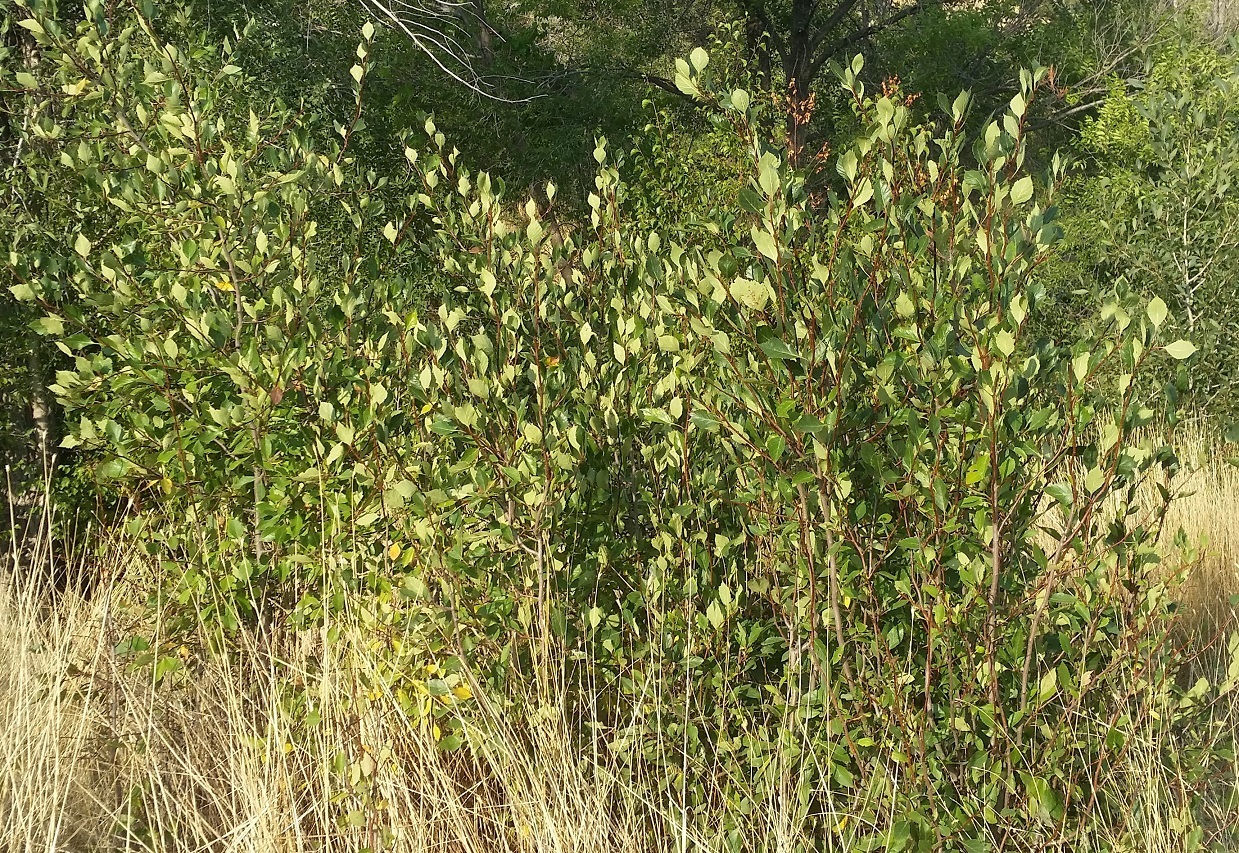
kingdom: Plantae
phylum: Tracheophyta
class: Magnoliopsida
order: Rosales
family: Rosaceae
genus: Crataegus
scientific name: Crataegus rivularis
